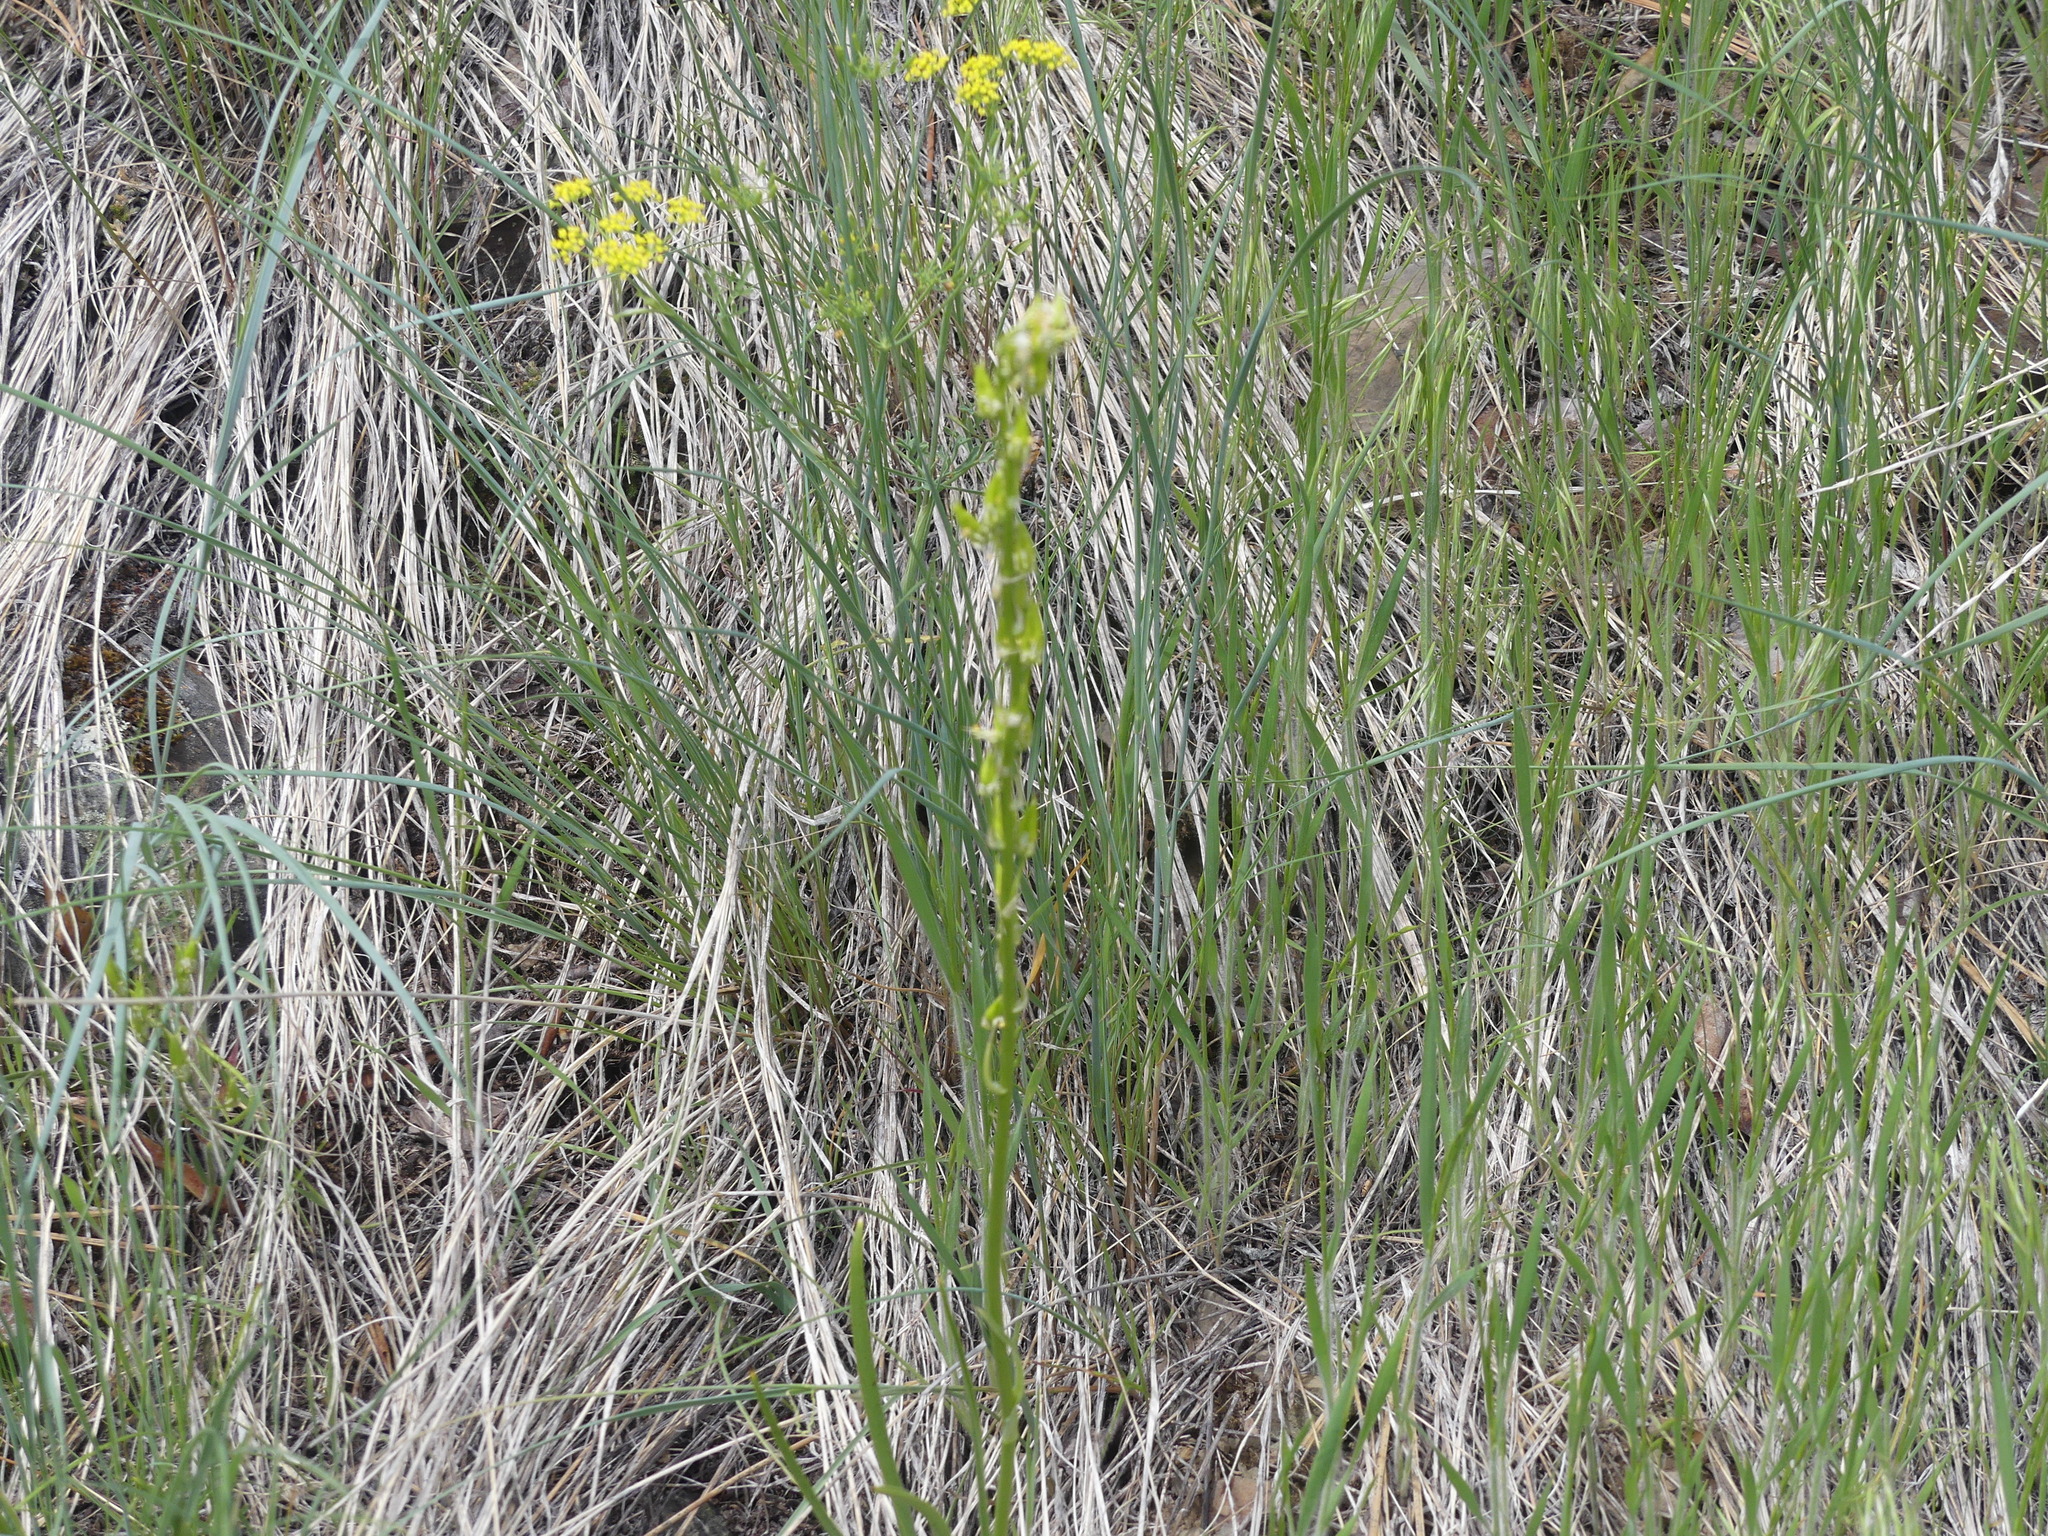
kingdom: Plantae
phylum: Tracheophyta
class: Liliopsida
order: Liliales
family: Melanthiaceae
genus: Toxicoscordion
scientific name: Toxicoscordion venenosum
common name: Meadow death camas
